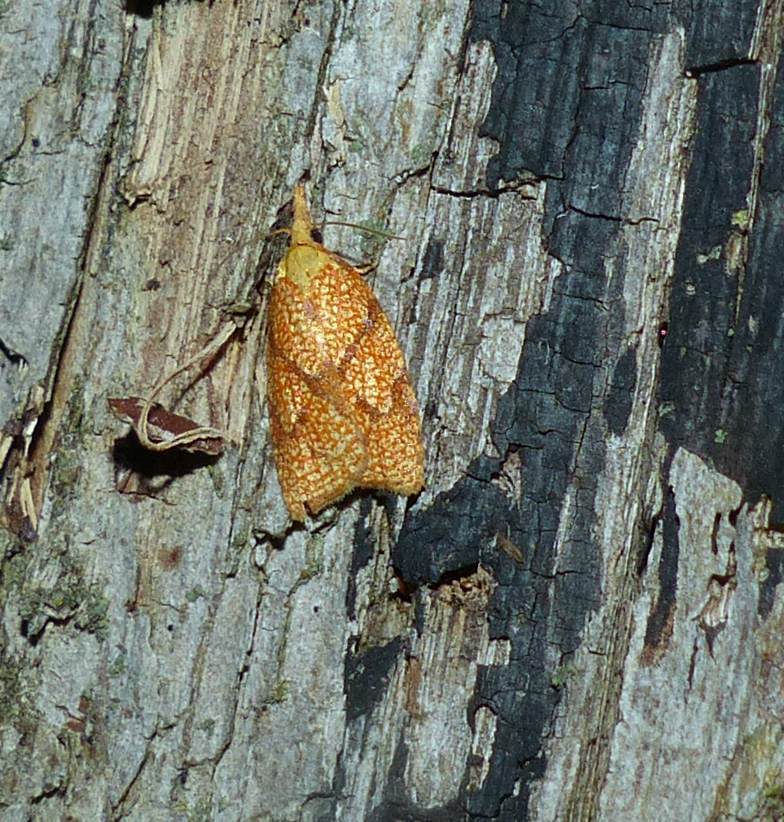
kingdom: Animalia
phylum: Arthropoda
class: Insecta
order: Lepidoptera
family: Tortricidae
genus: Cenopis
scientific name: Cenopis reticulatana
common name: Reticulated fruitworm moth
